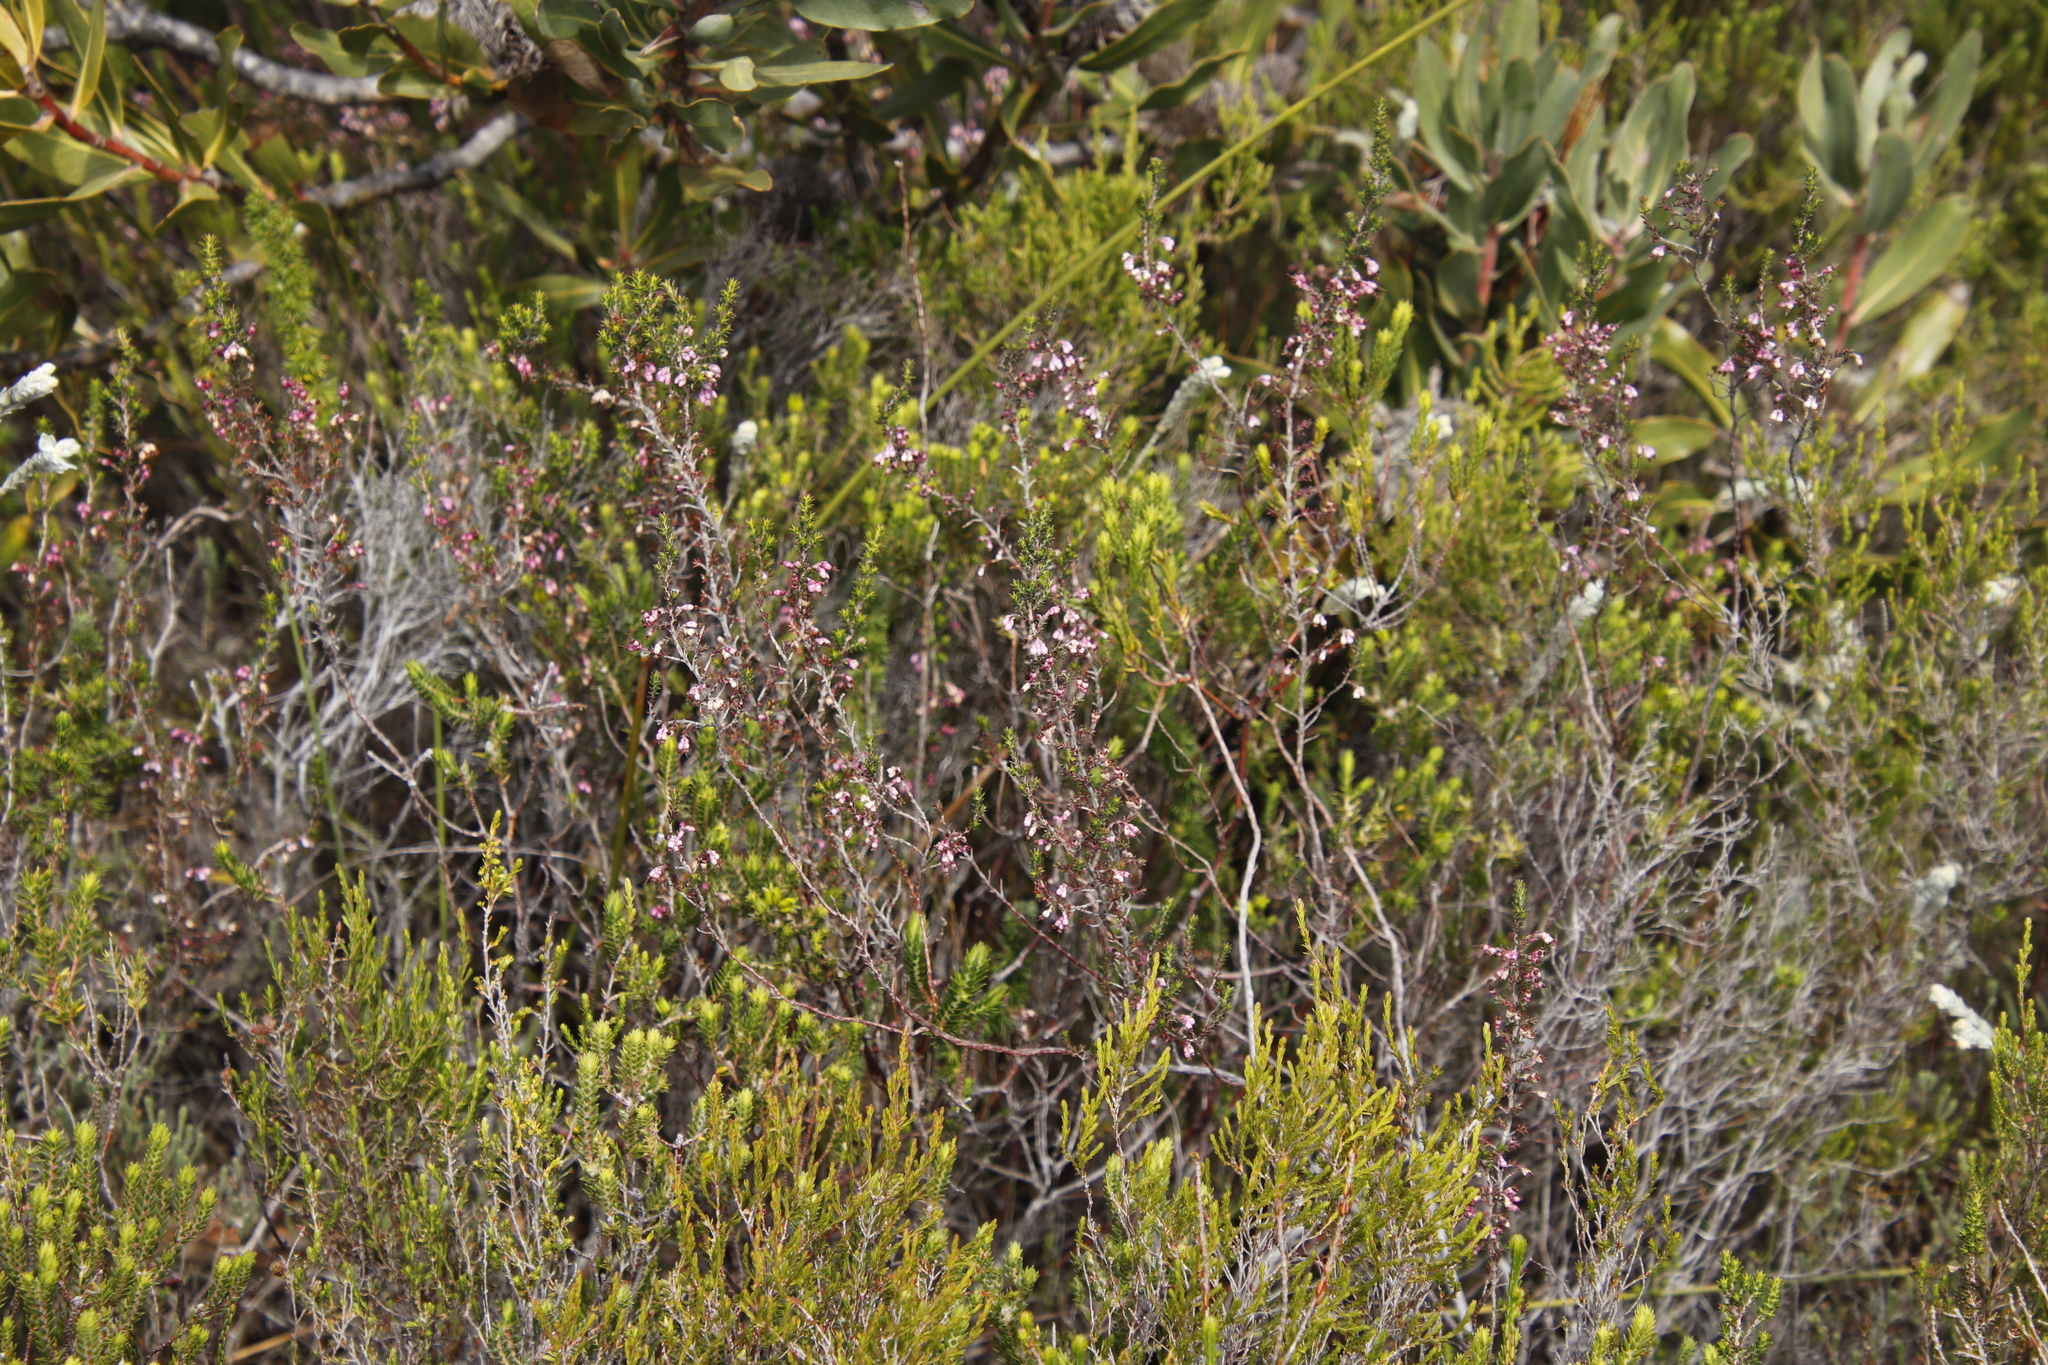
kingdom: Plantae
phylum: Tracheophyta
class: Magnoliopsida
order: Ericales
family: Ericaceae
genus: Erica
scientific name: Erica placentiflora
